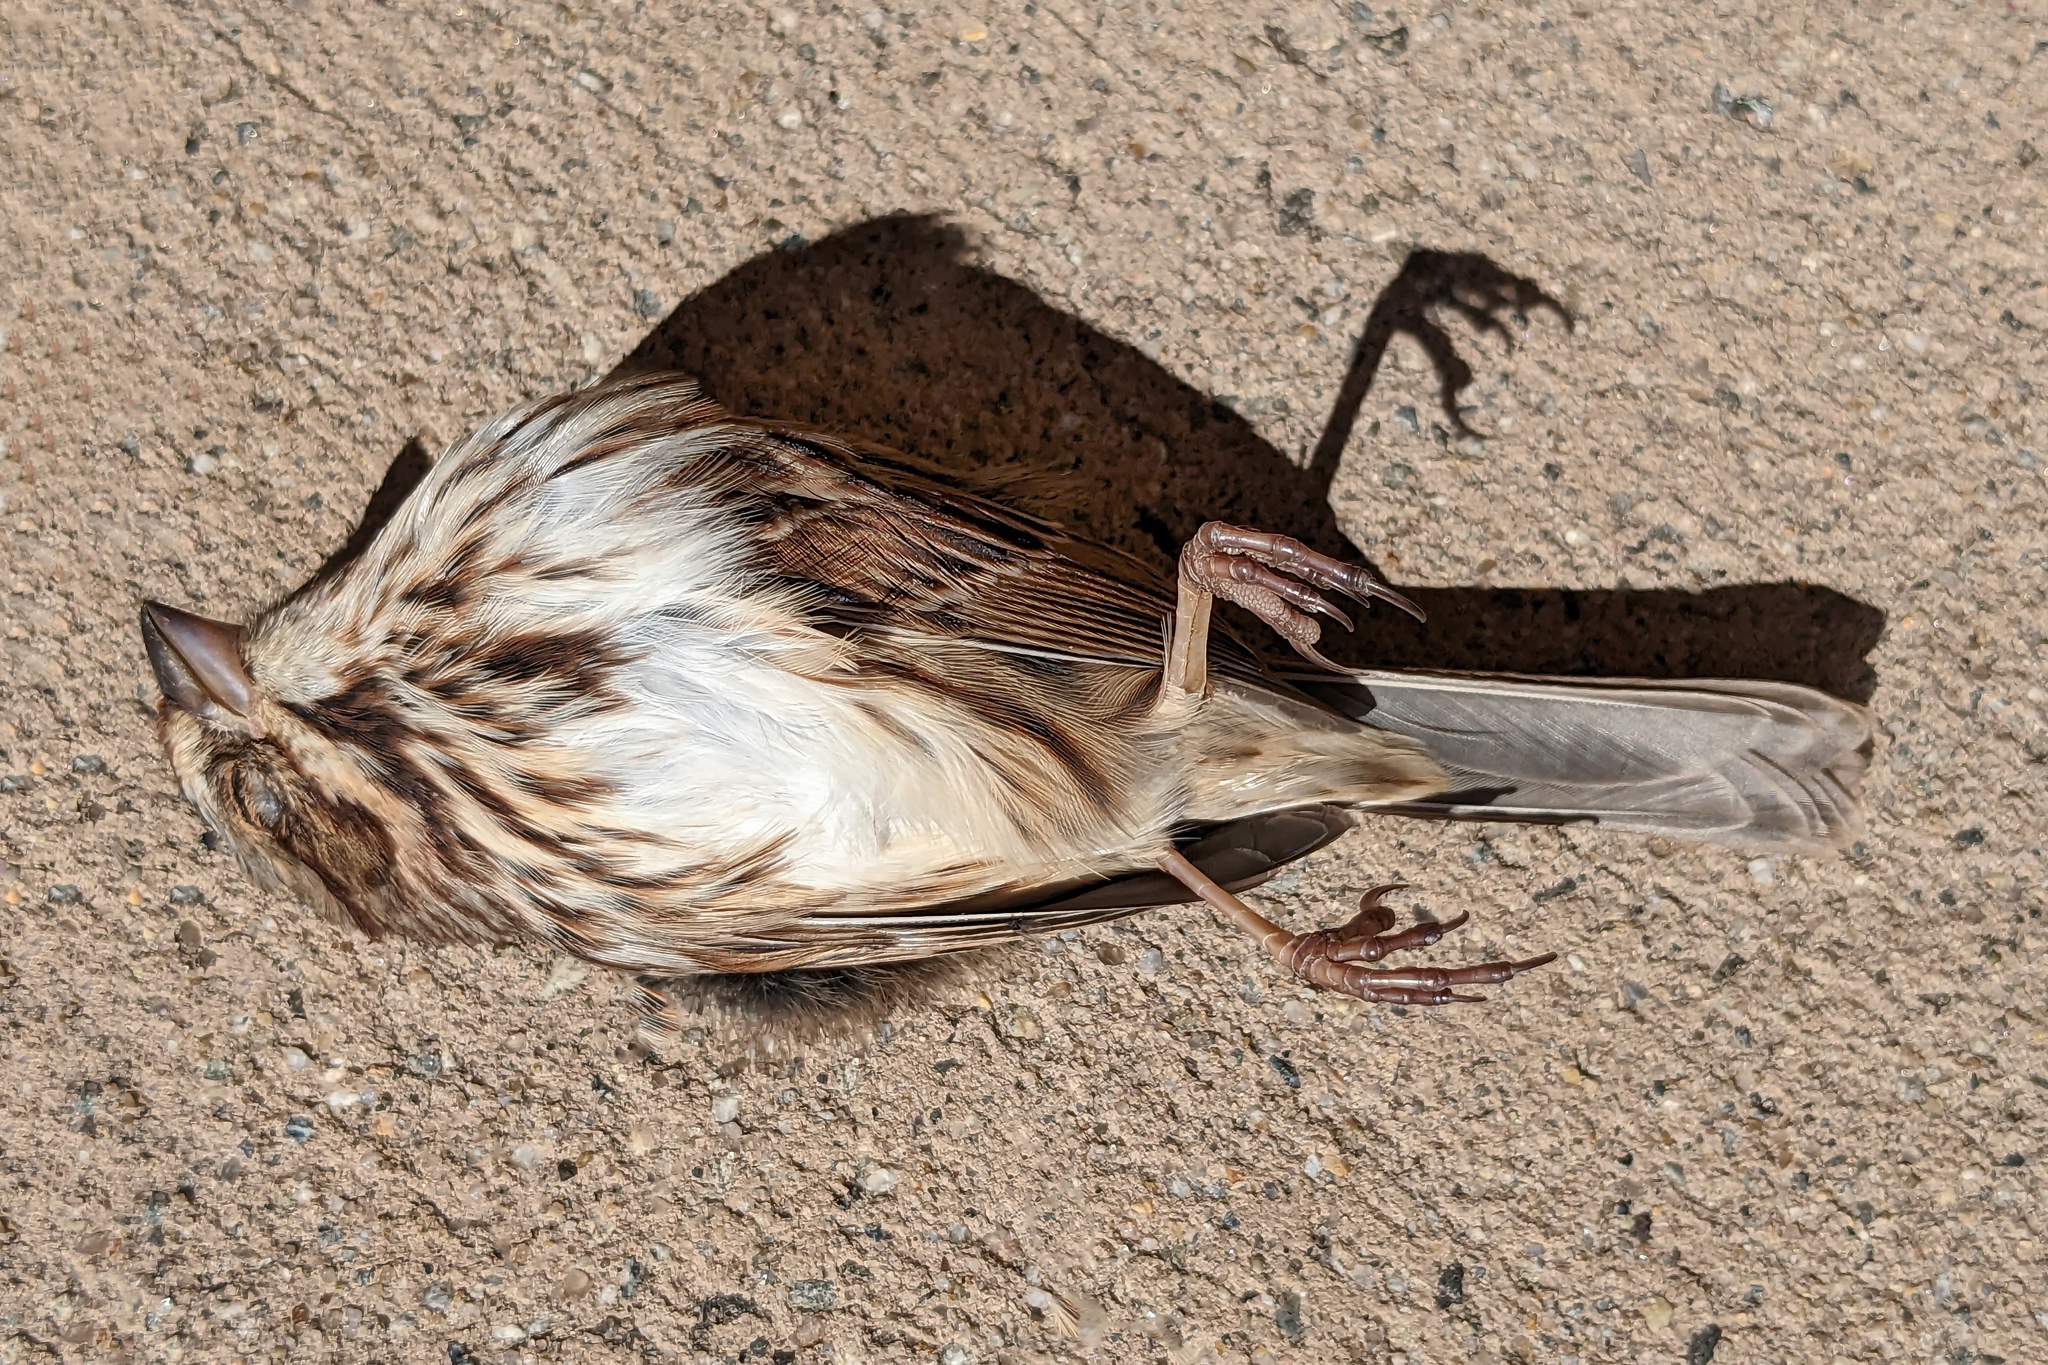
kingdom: Animalia
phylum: Chordata
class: Aves
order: Passeriformes
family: Passerellidae
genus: Melospiza
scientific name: Melospiza melodia
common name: Song sparrow
